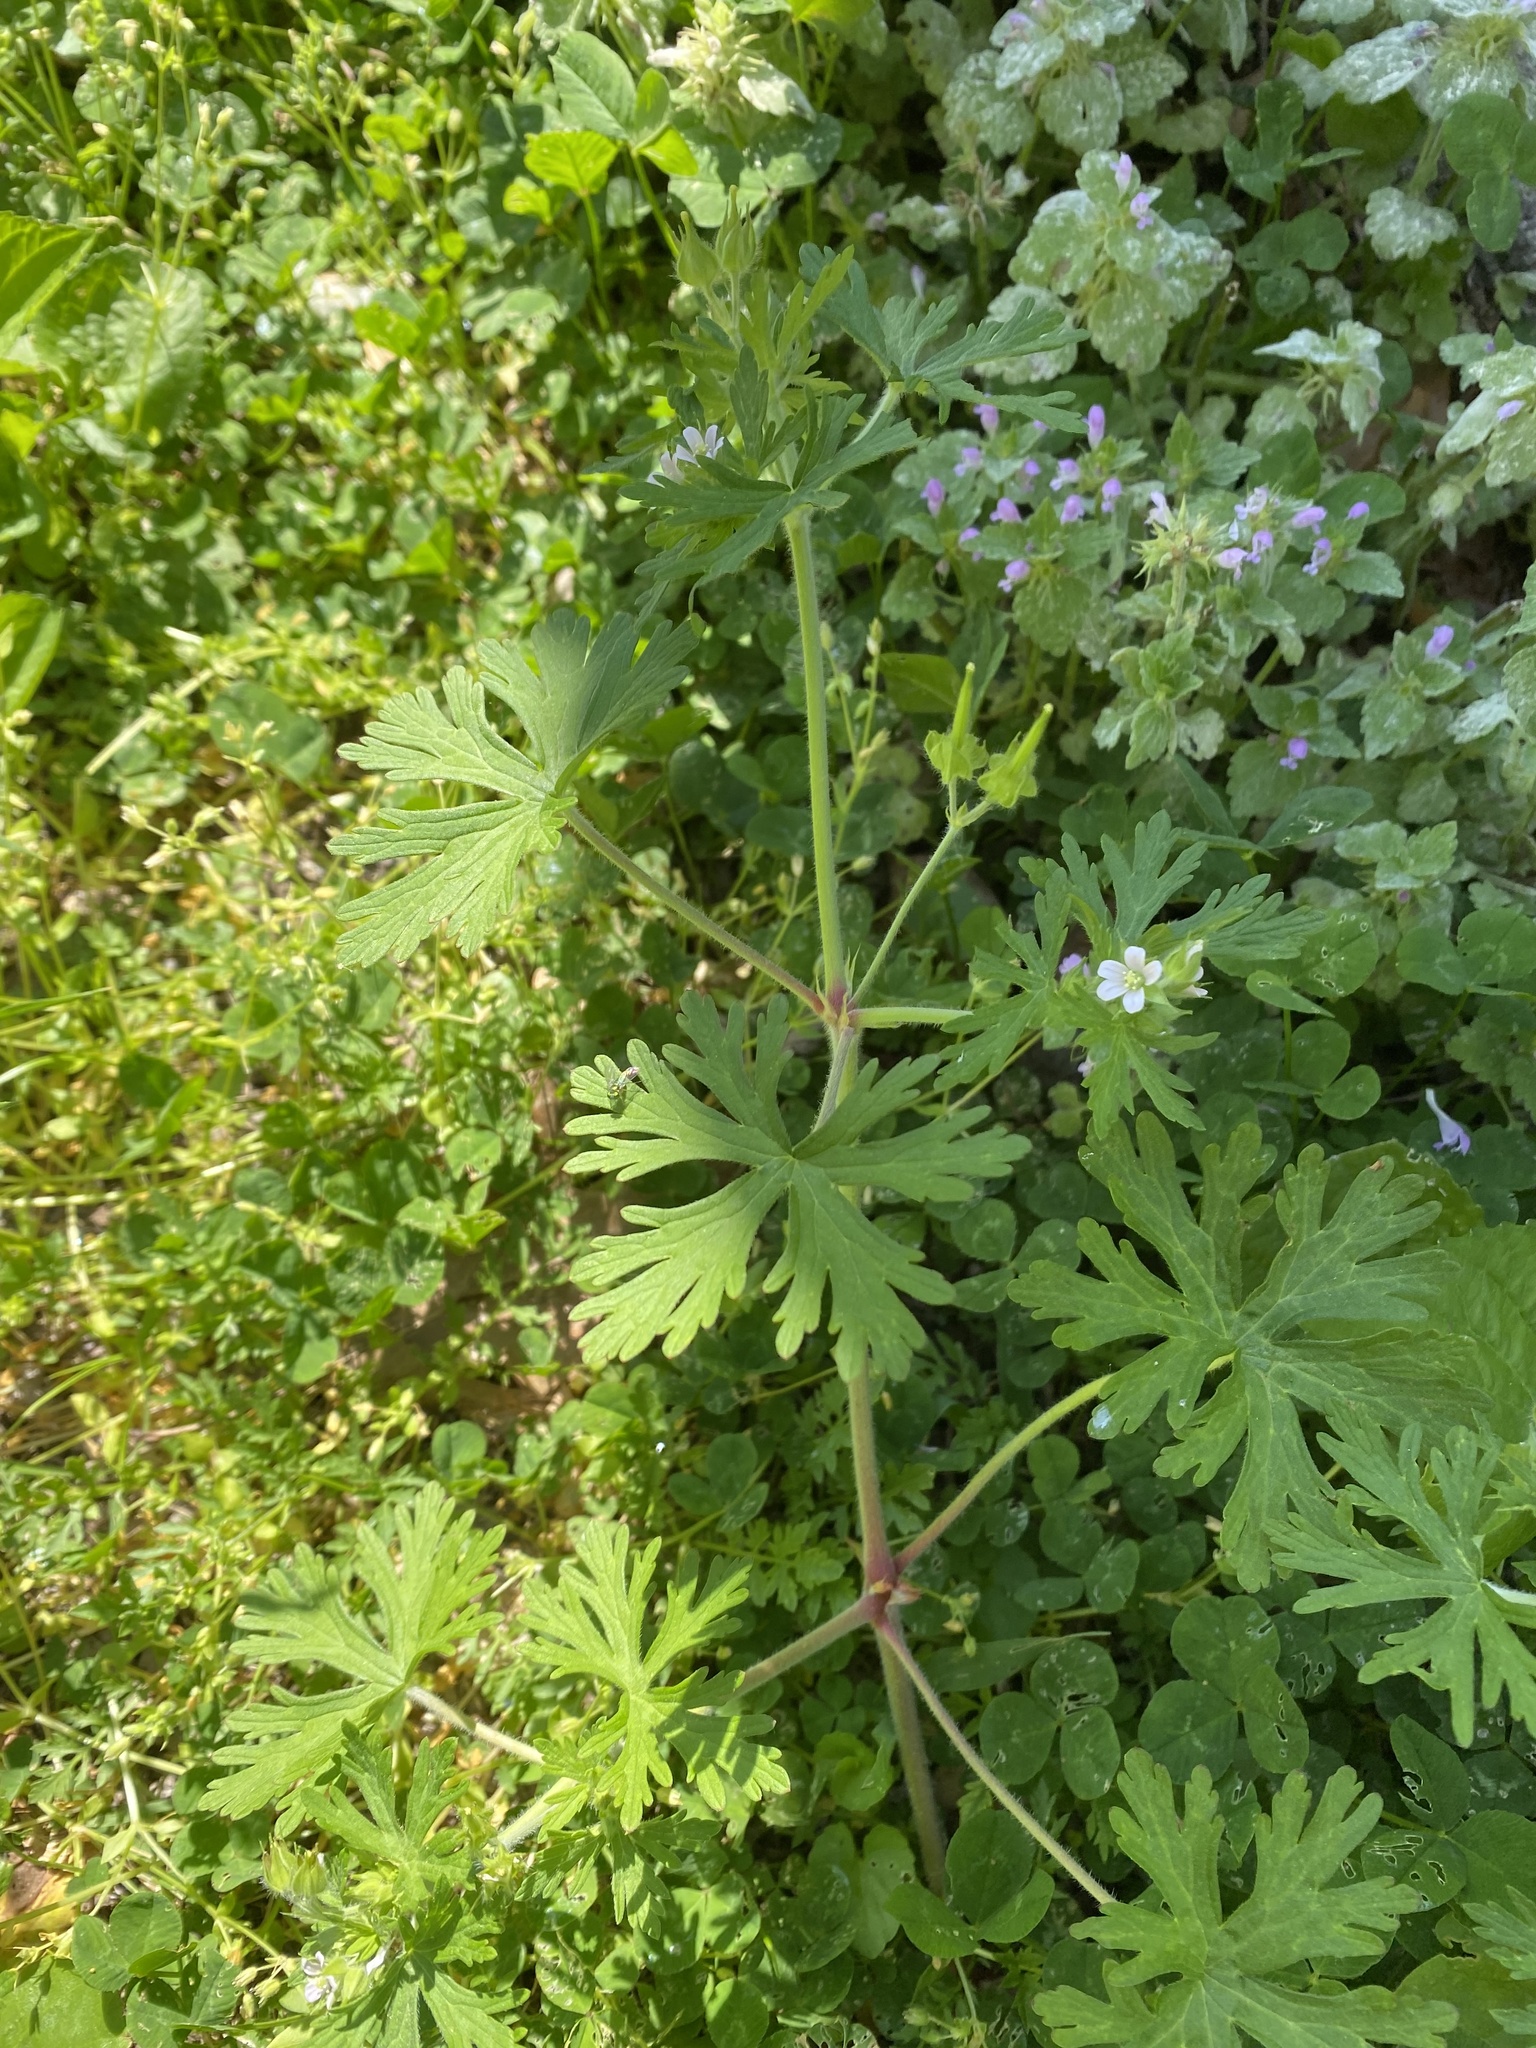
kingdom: Plantae
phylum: Tracheophyta
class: Magnoliopsida
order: Geraniales
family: Geraniaceae
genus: Geranium
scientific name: Geranium carolinianum
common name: Carolina crane's-bill
